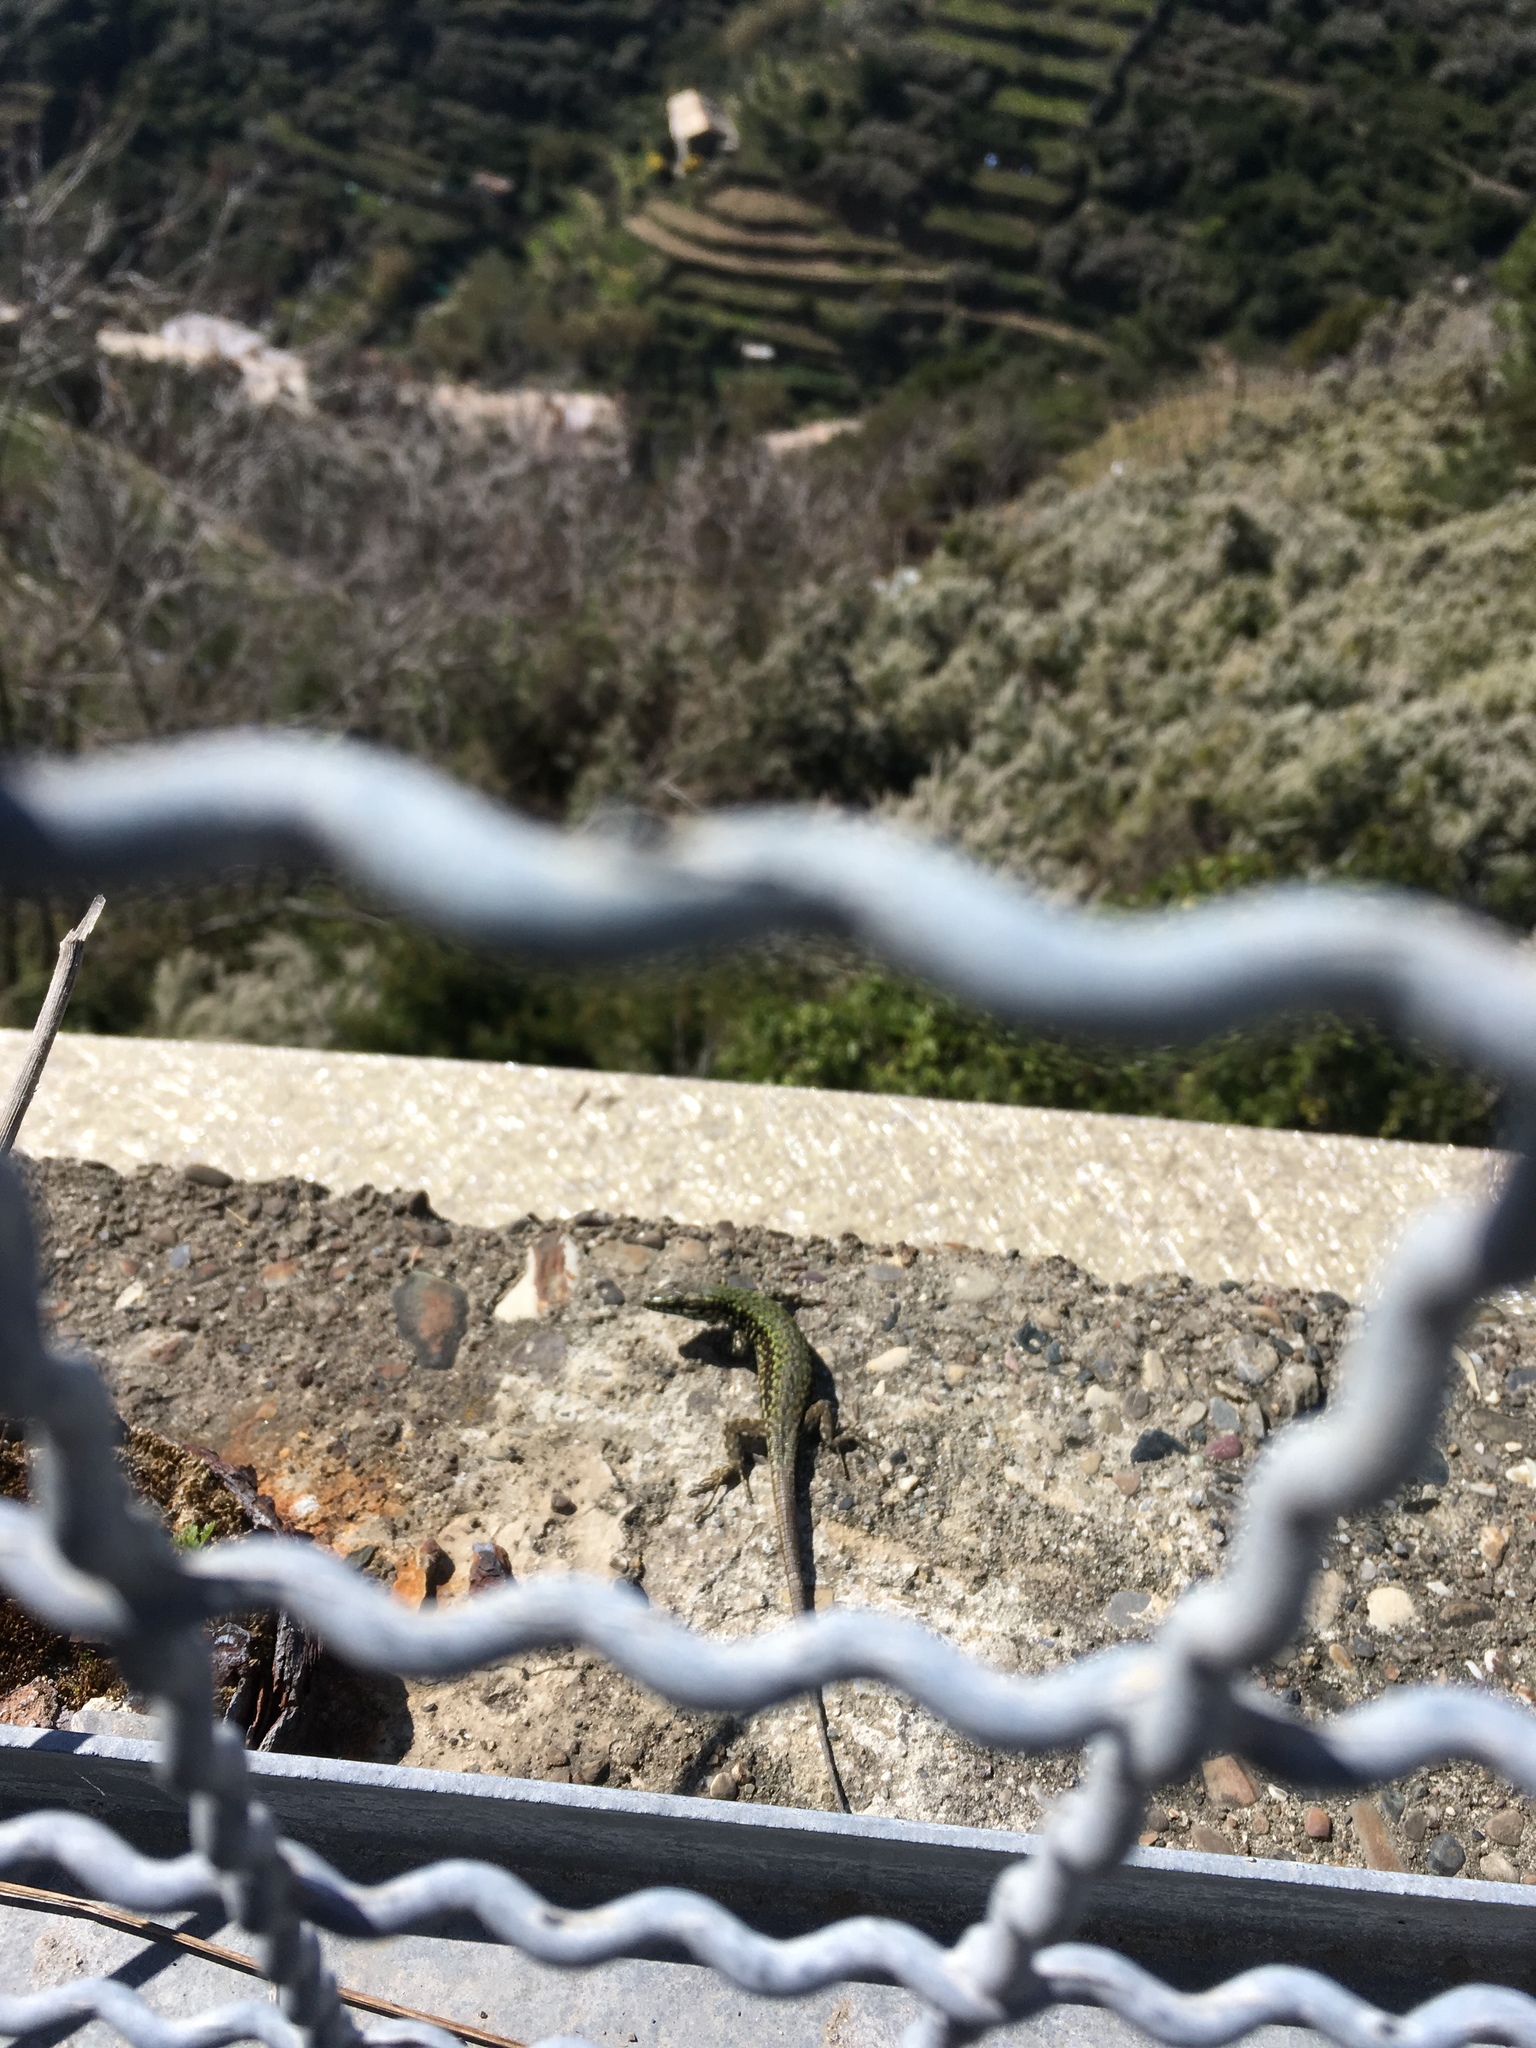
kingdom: Animalia
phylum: Chordata
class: Squamata
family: Lacertidae
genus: Podarcis
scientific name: Podarcis muralis
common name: Common wall lizard
